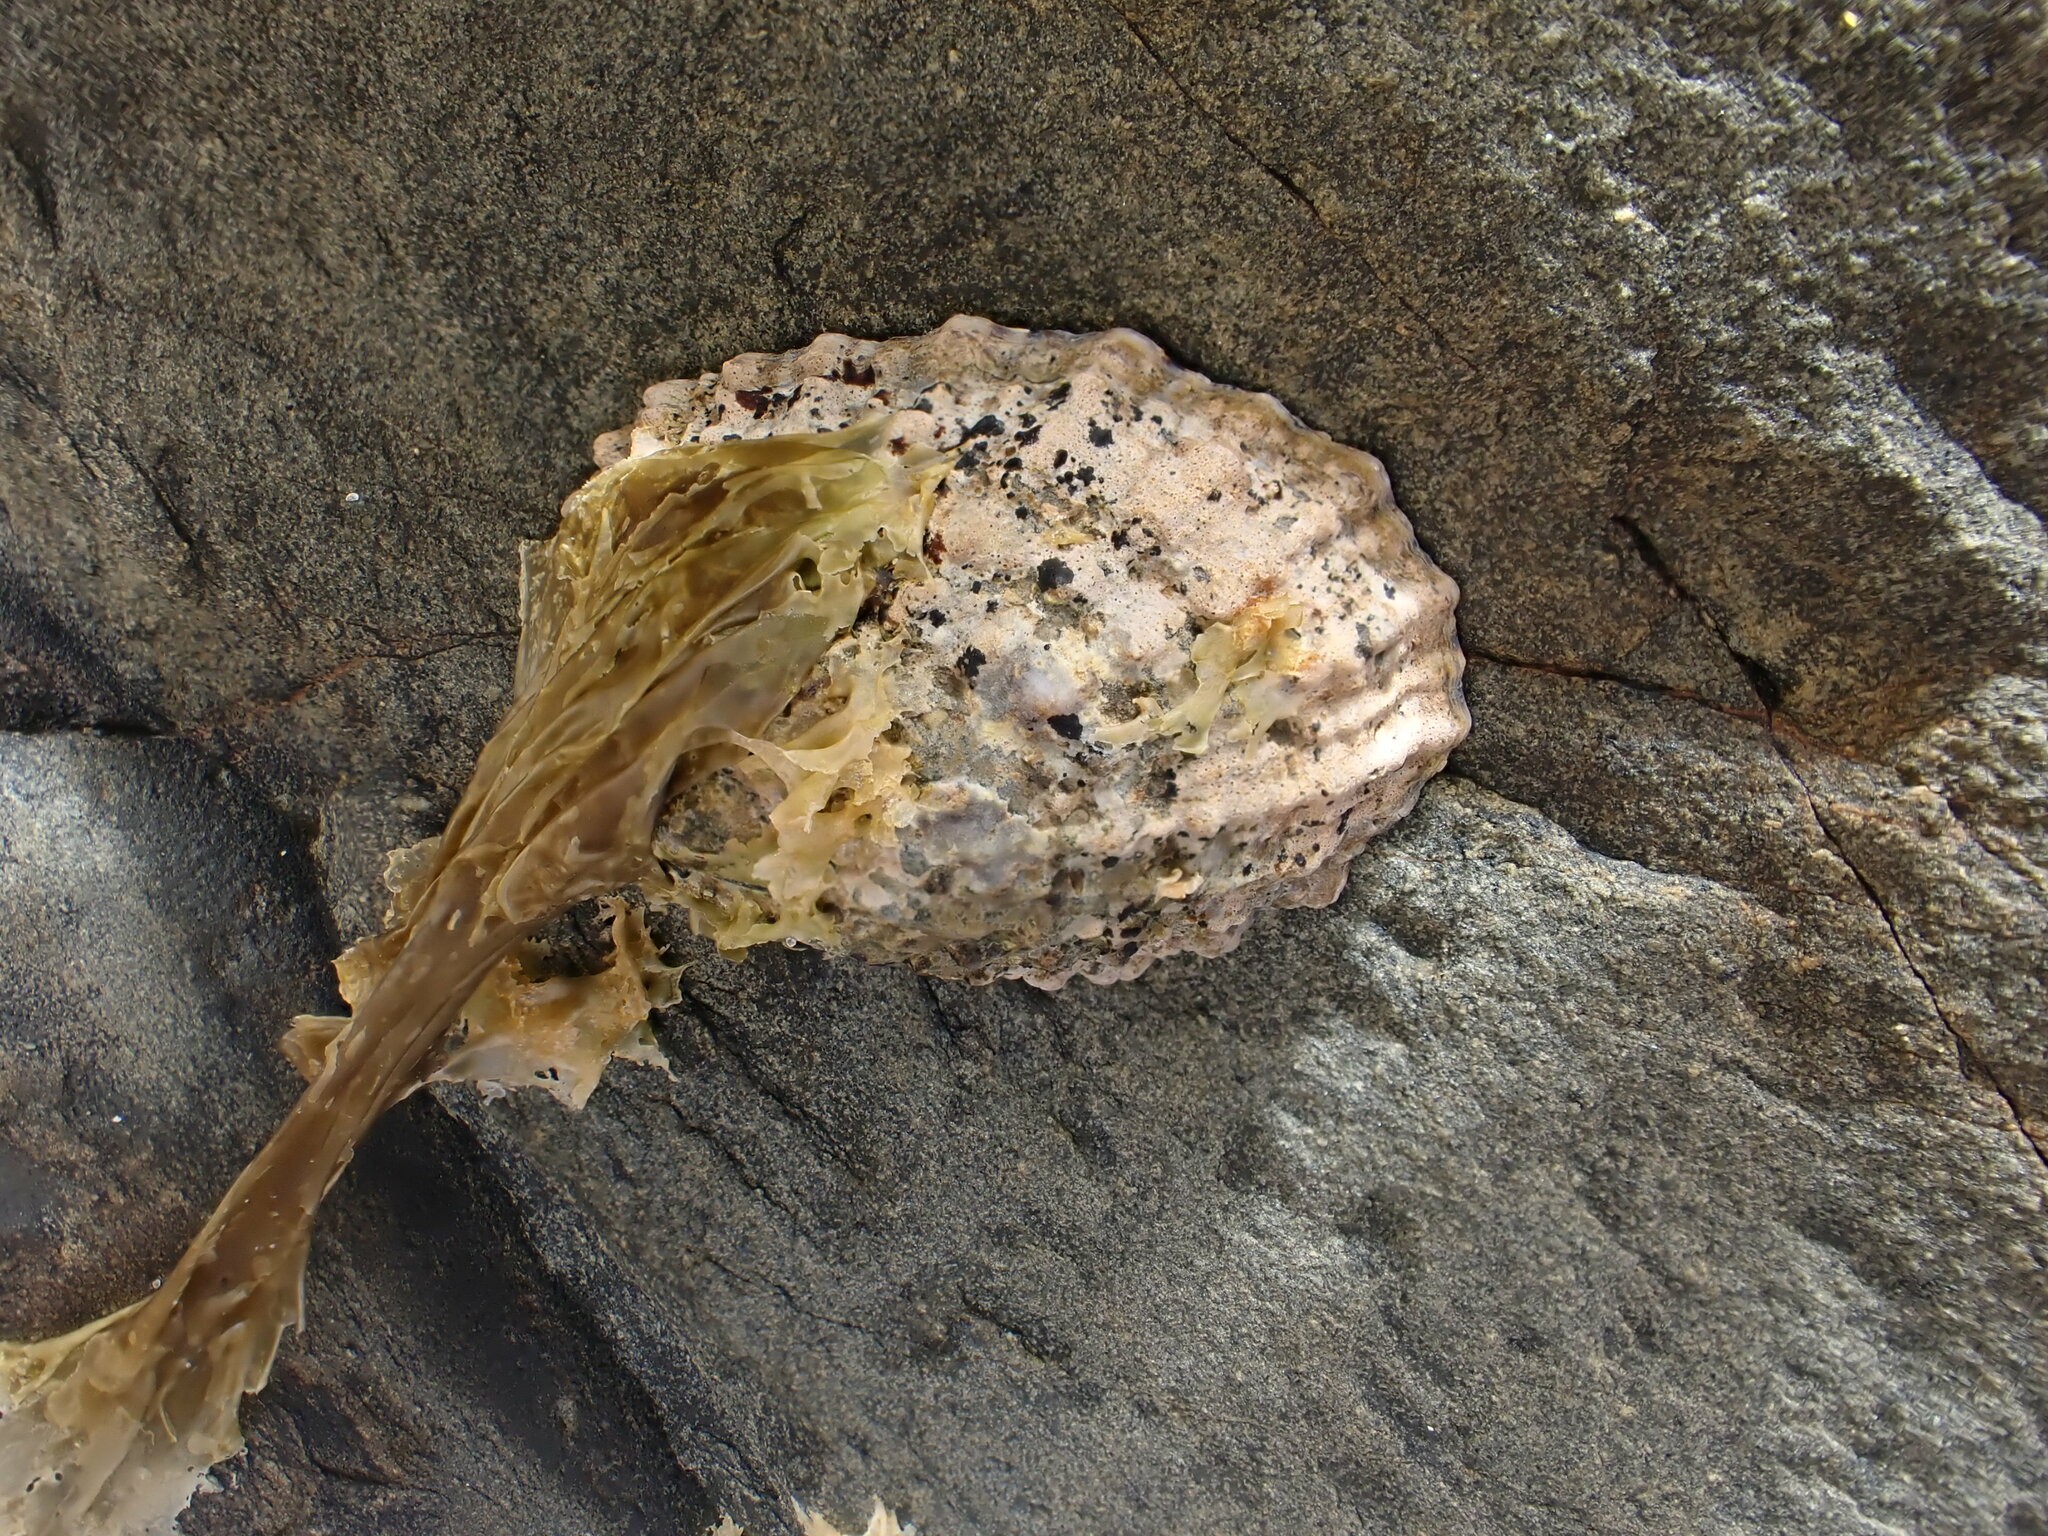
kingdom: Animalia
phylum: Mollusca
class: Gastropoda
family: Nacellidae
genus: Cellana
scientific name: Cellana ornata
